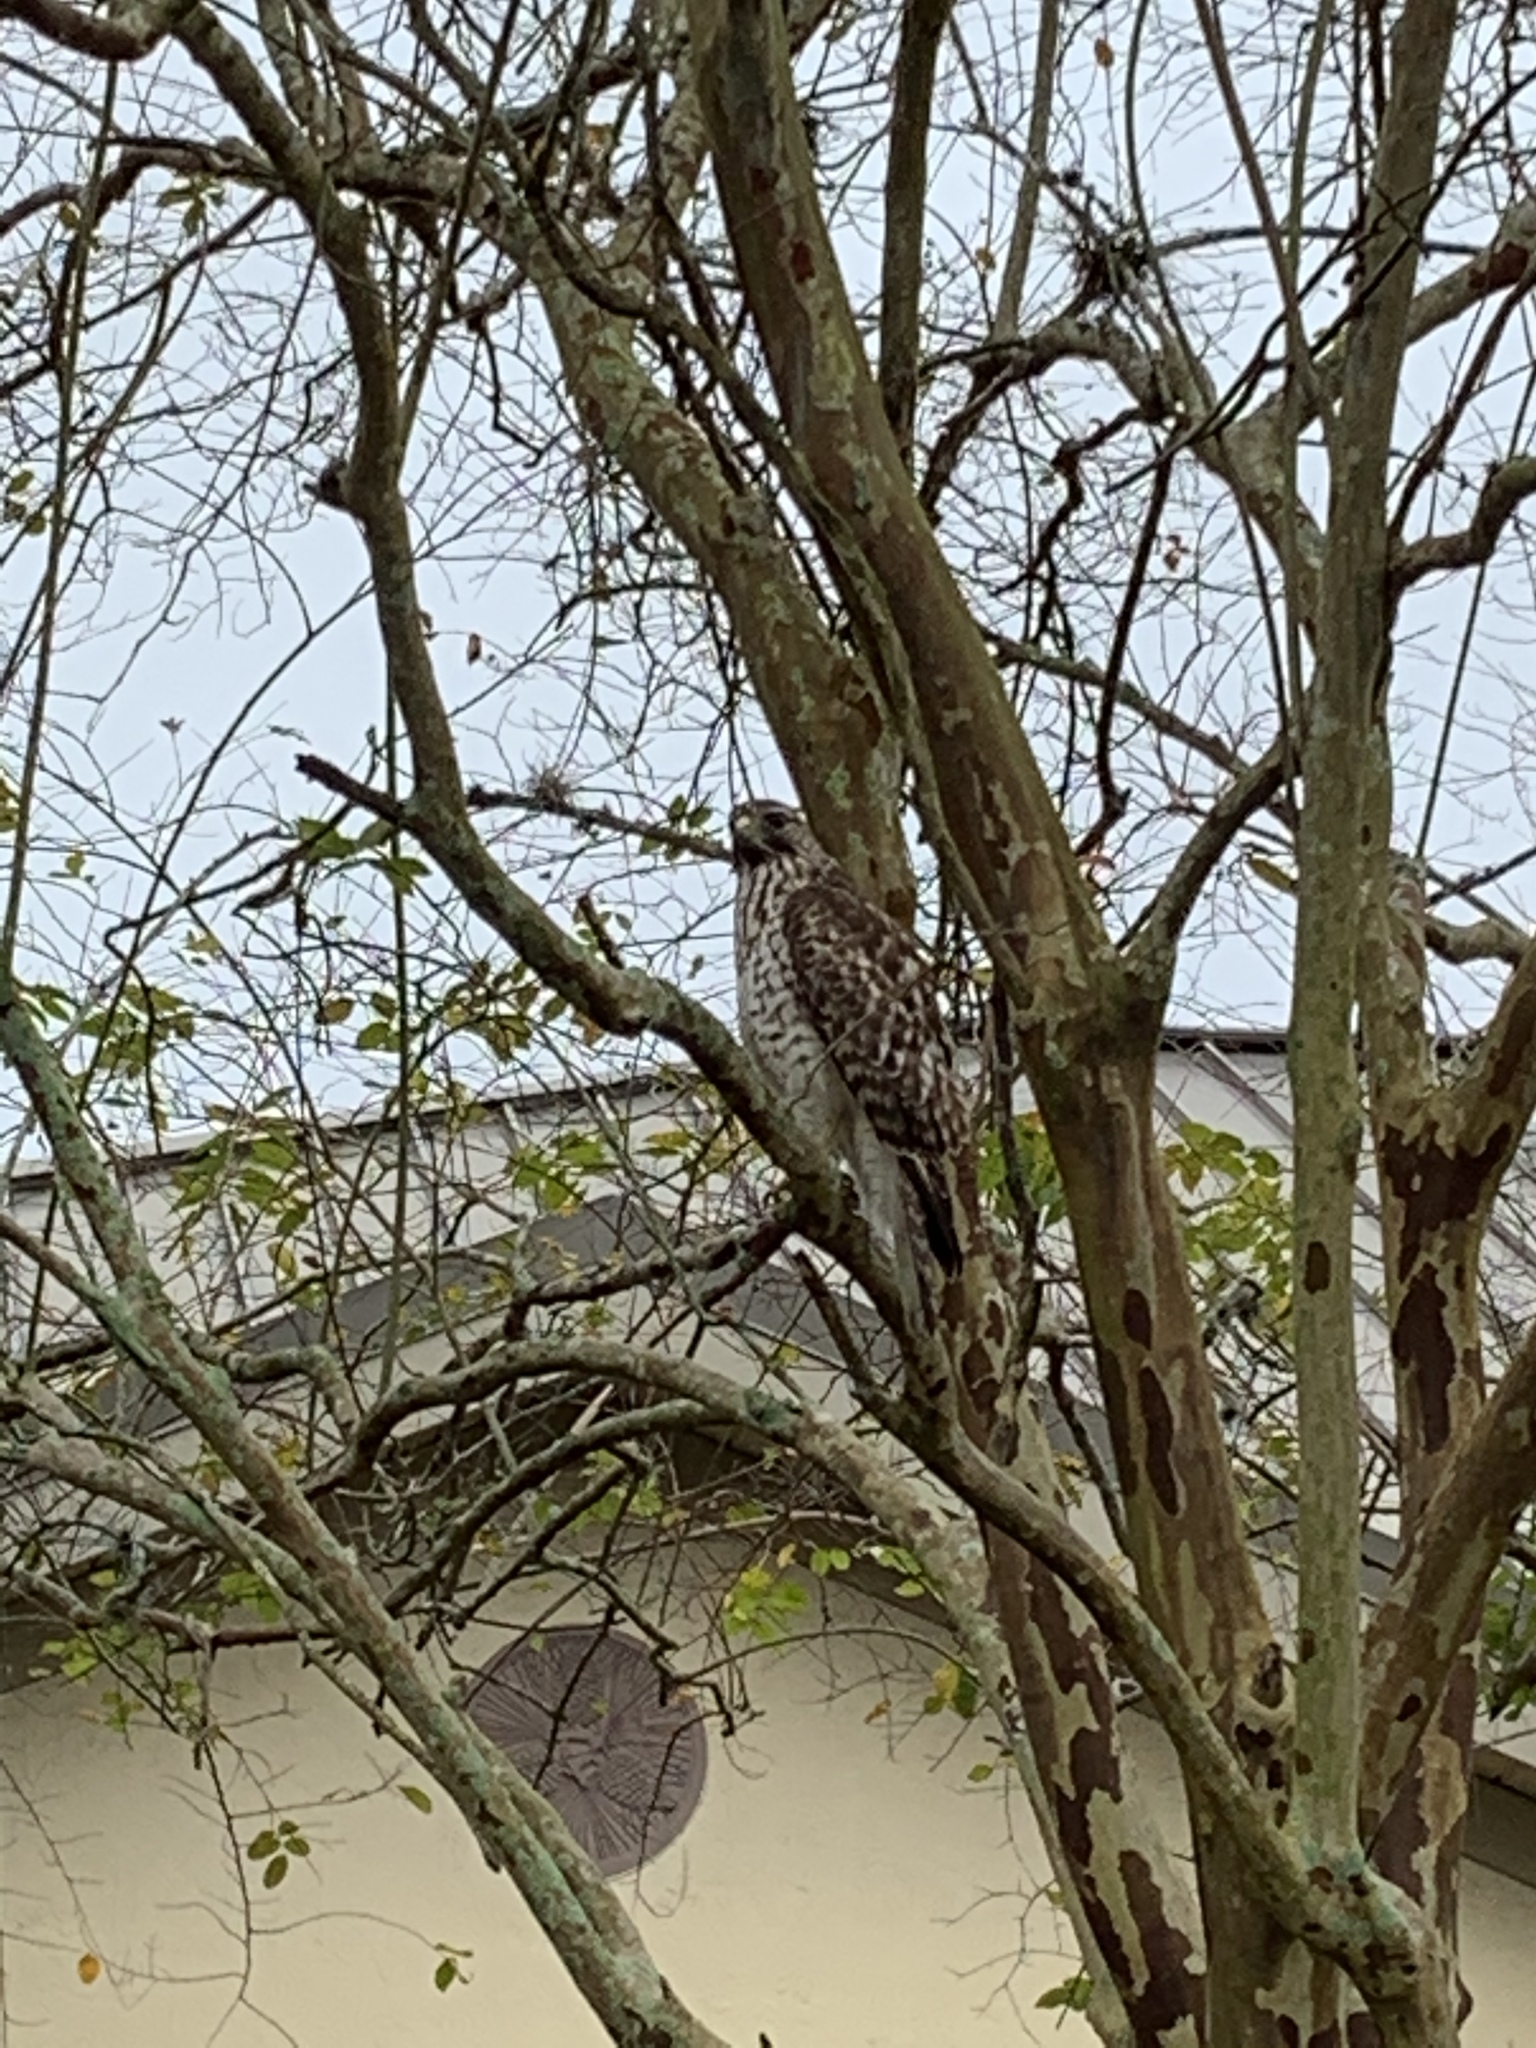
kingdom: Animalia
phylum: Chordata
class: Aves
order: Accipitriformes
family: Accipitridae
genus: Buteo
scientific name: Buteo lineatus
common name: Red-shouldered hawk
